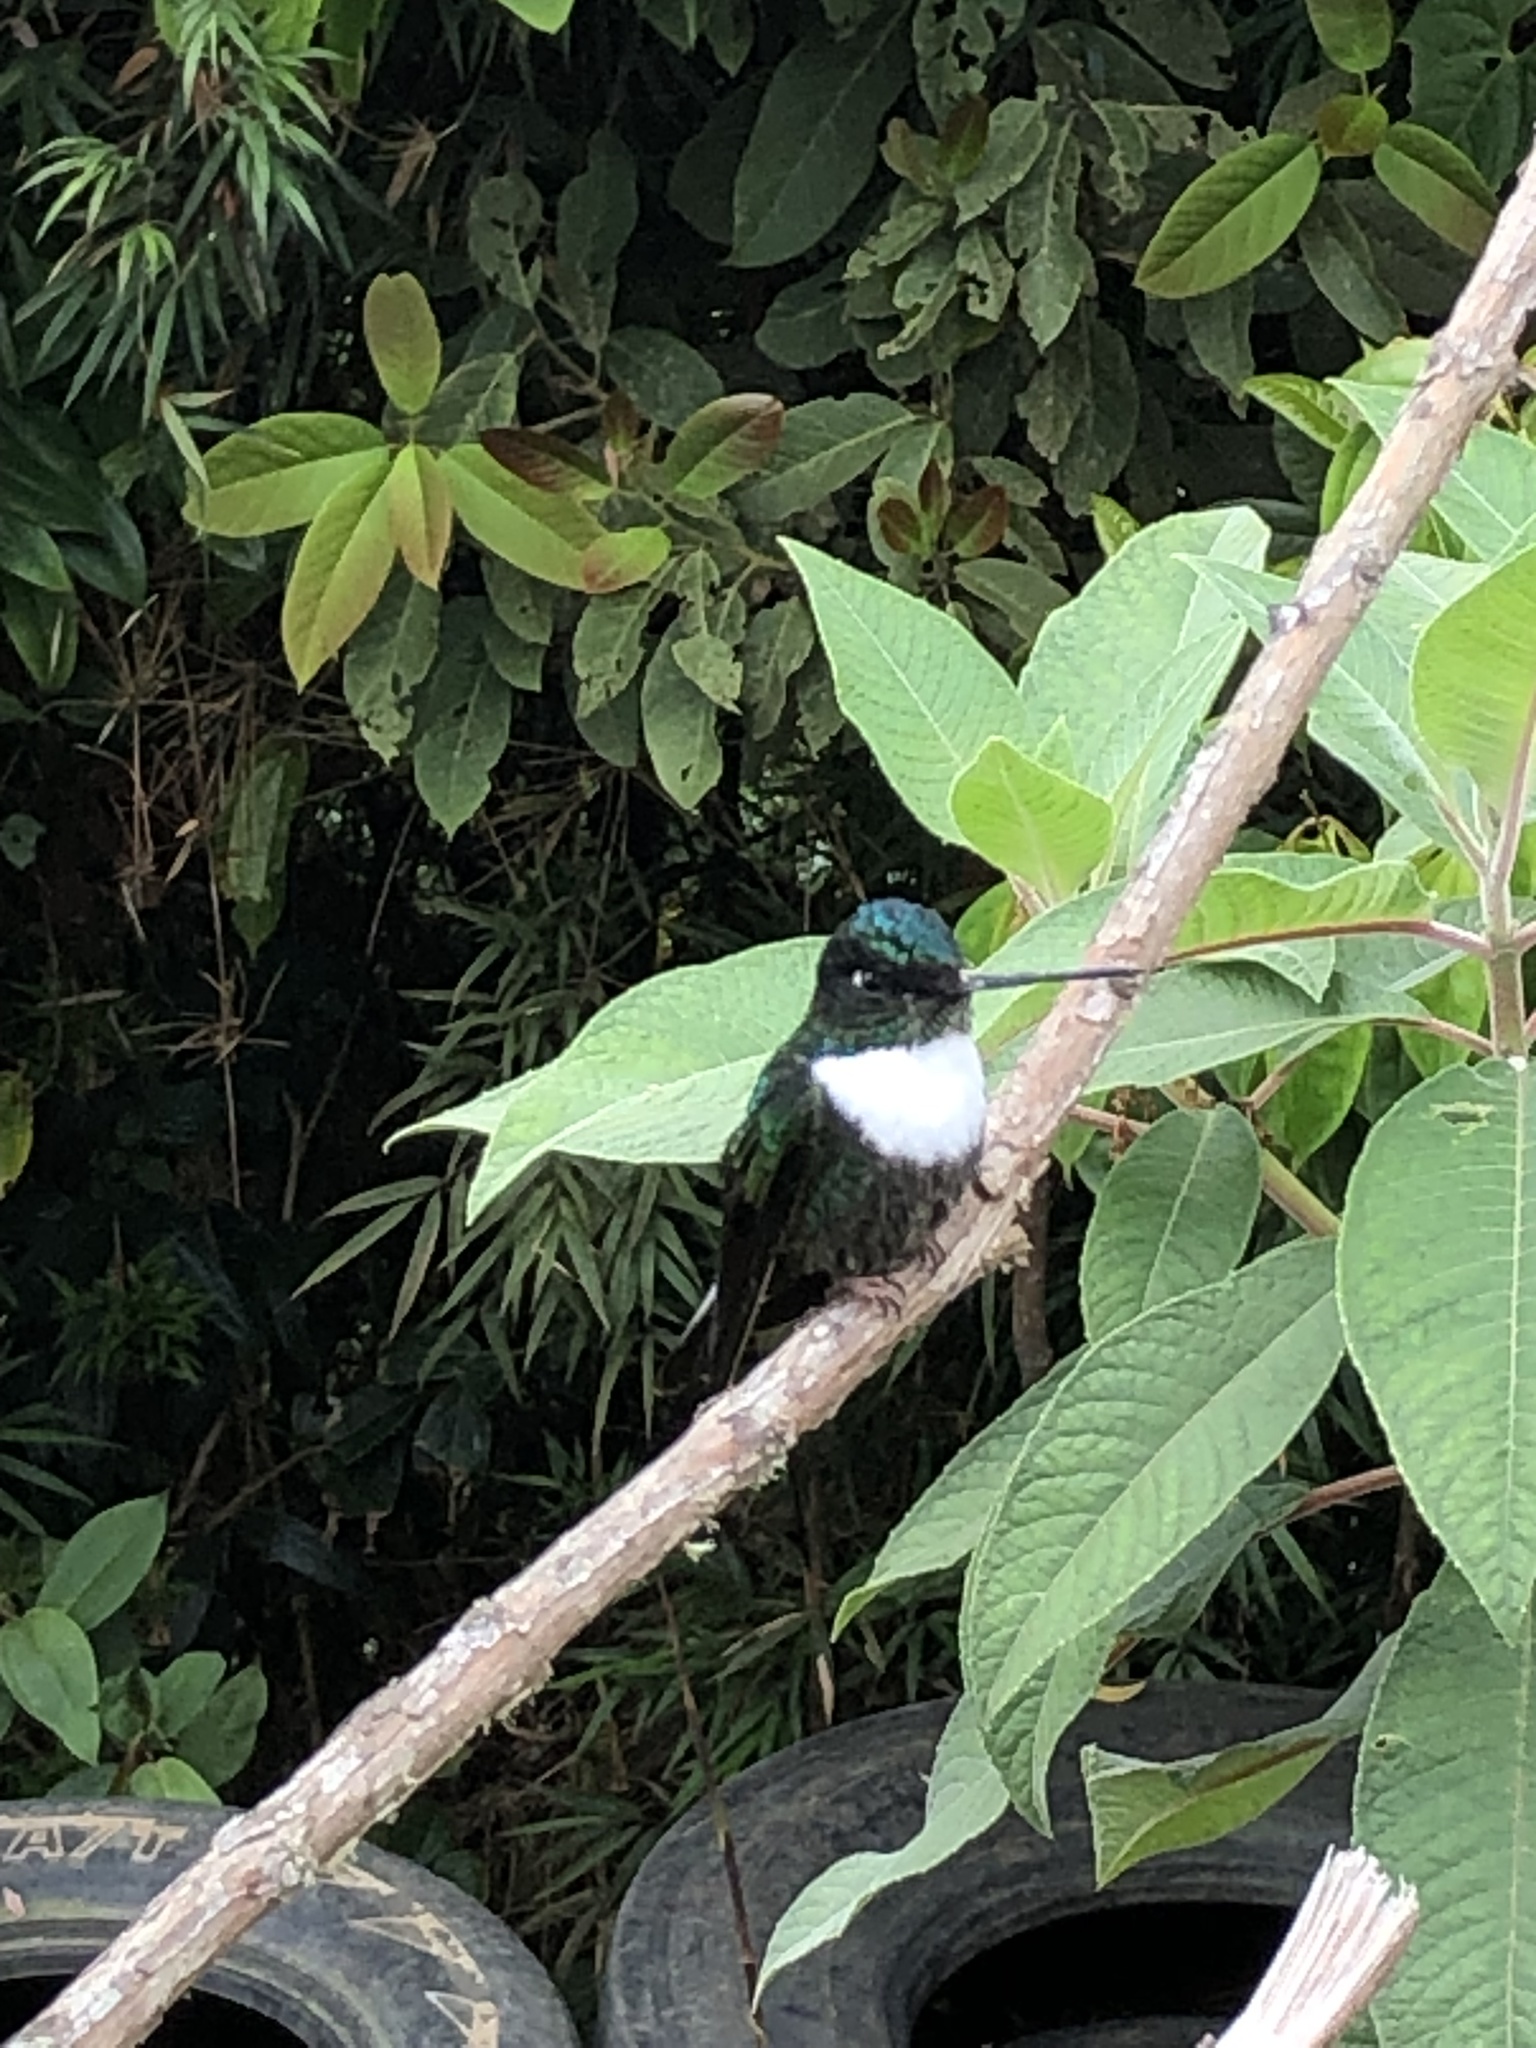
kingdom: Animalia
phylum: Chordata
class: Aves
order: Apodiformes
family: Trochilidae
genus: Coeligena
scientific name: Coeligena torquata
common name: Collared inca
